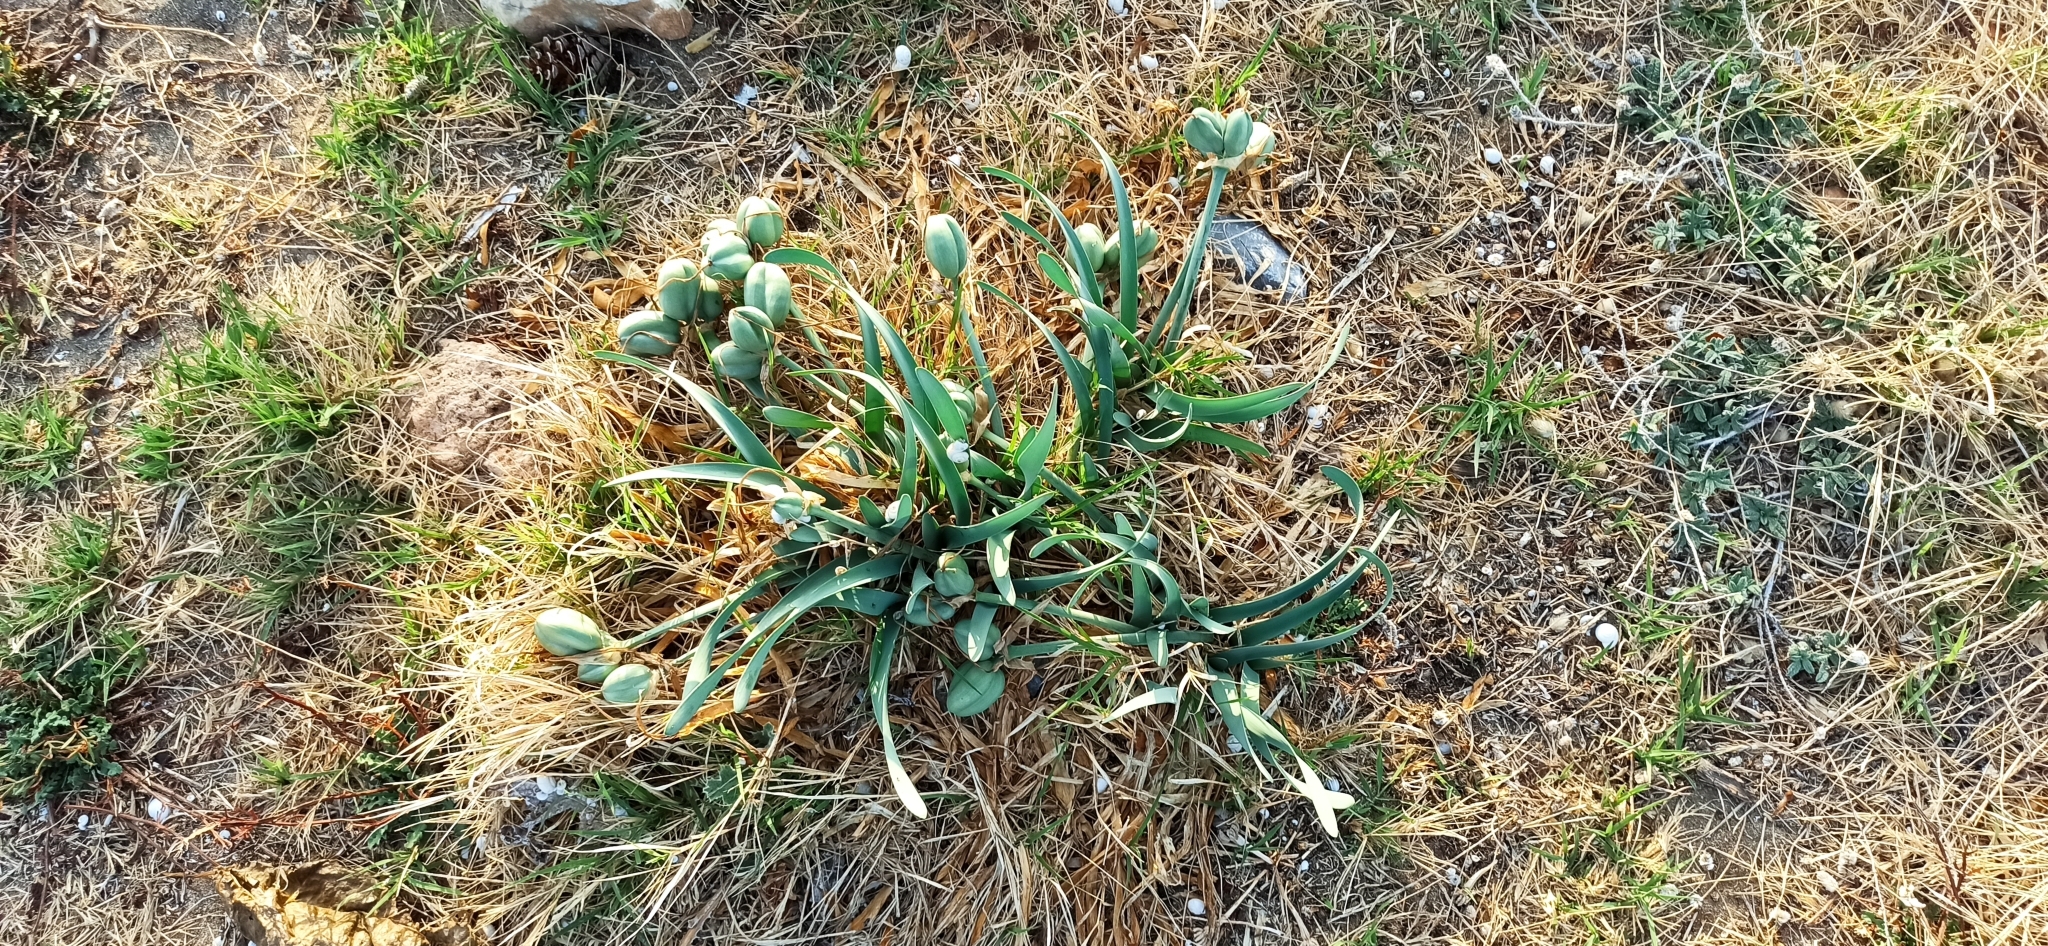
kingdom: Plantae
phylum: Tracheophyta
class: Liliopsida
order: Asparagales
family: Amaryllidaceae
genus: Pancratium
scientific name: Pancratium maritimum
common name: Sea-daffodil
